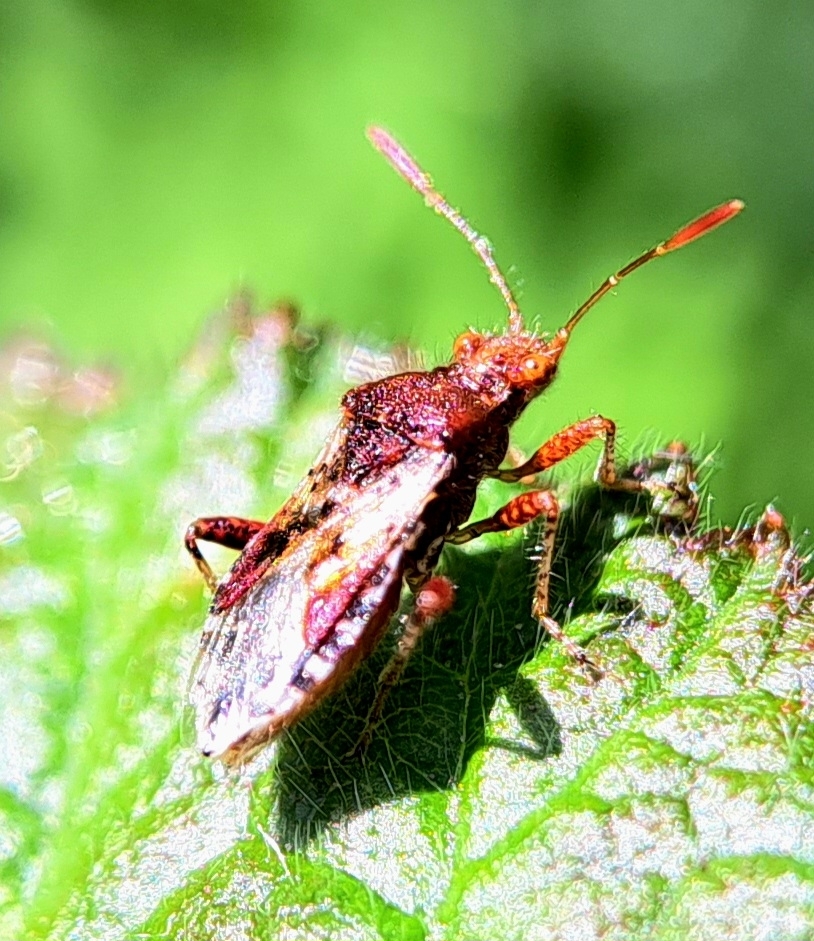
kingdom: Animalia
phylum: Arthropoda
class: Insecta
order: Hemiptera
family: Rhopalidae
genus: Rhopalus
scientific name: Rhopalus subrufus
